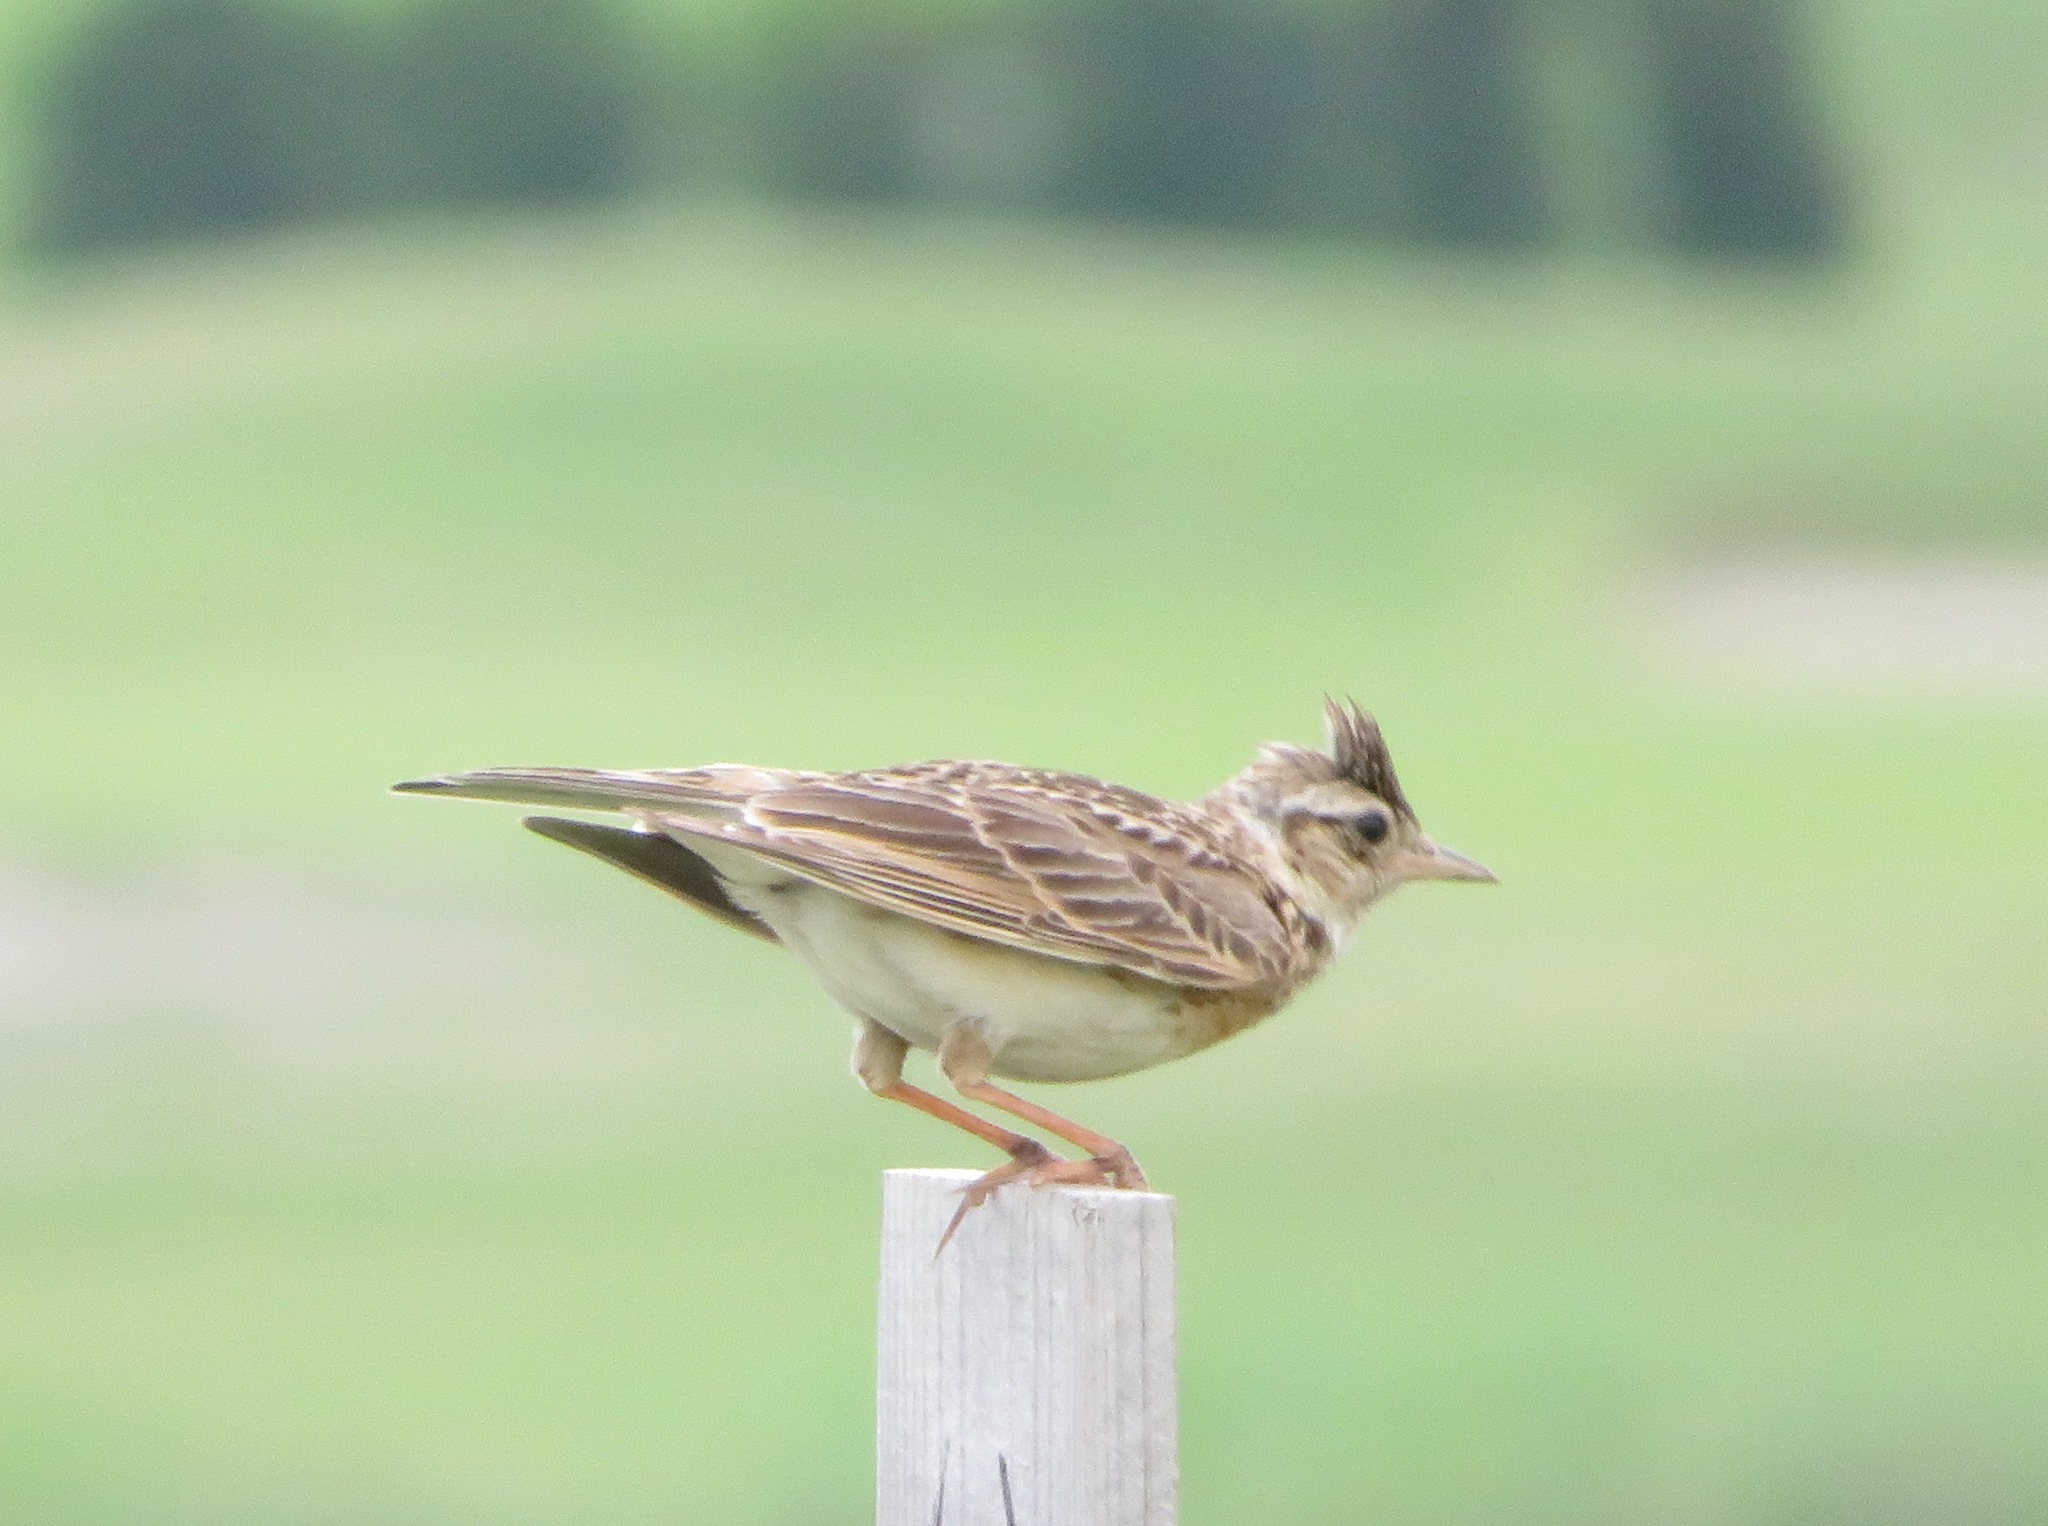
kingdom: Animalia
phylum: Chordata
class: Aves
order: Passeriformes
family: Alaudidae
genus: Alauda
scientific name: Alauda arvensis
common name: Eurasian skylark
